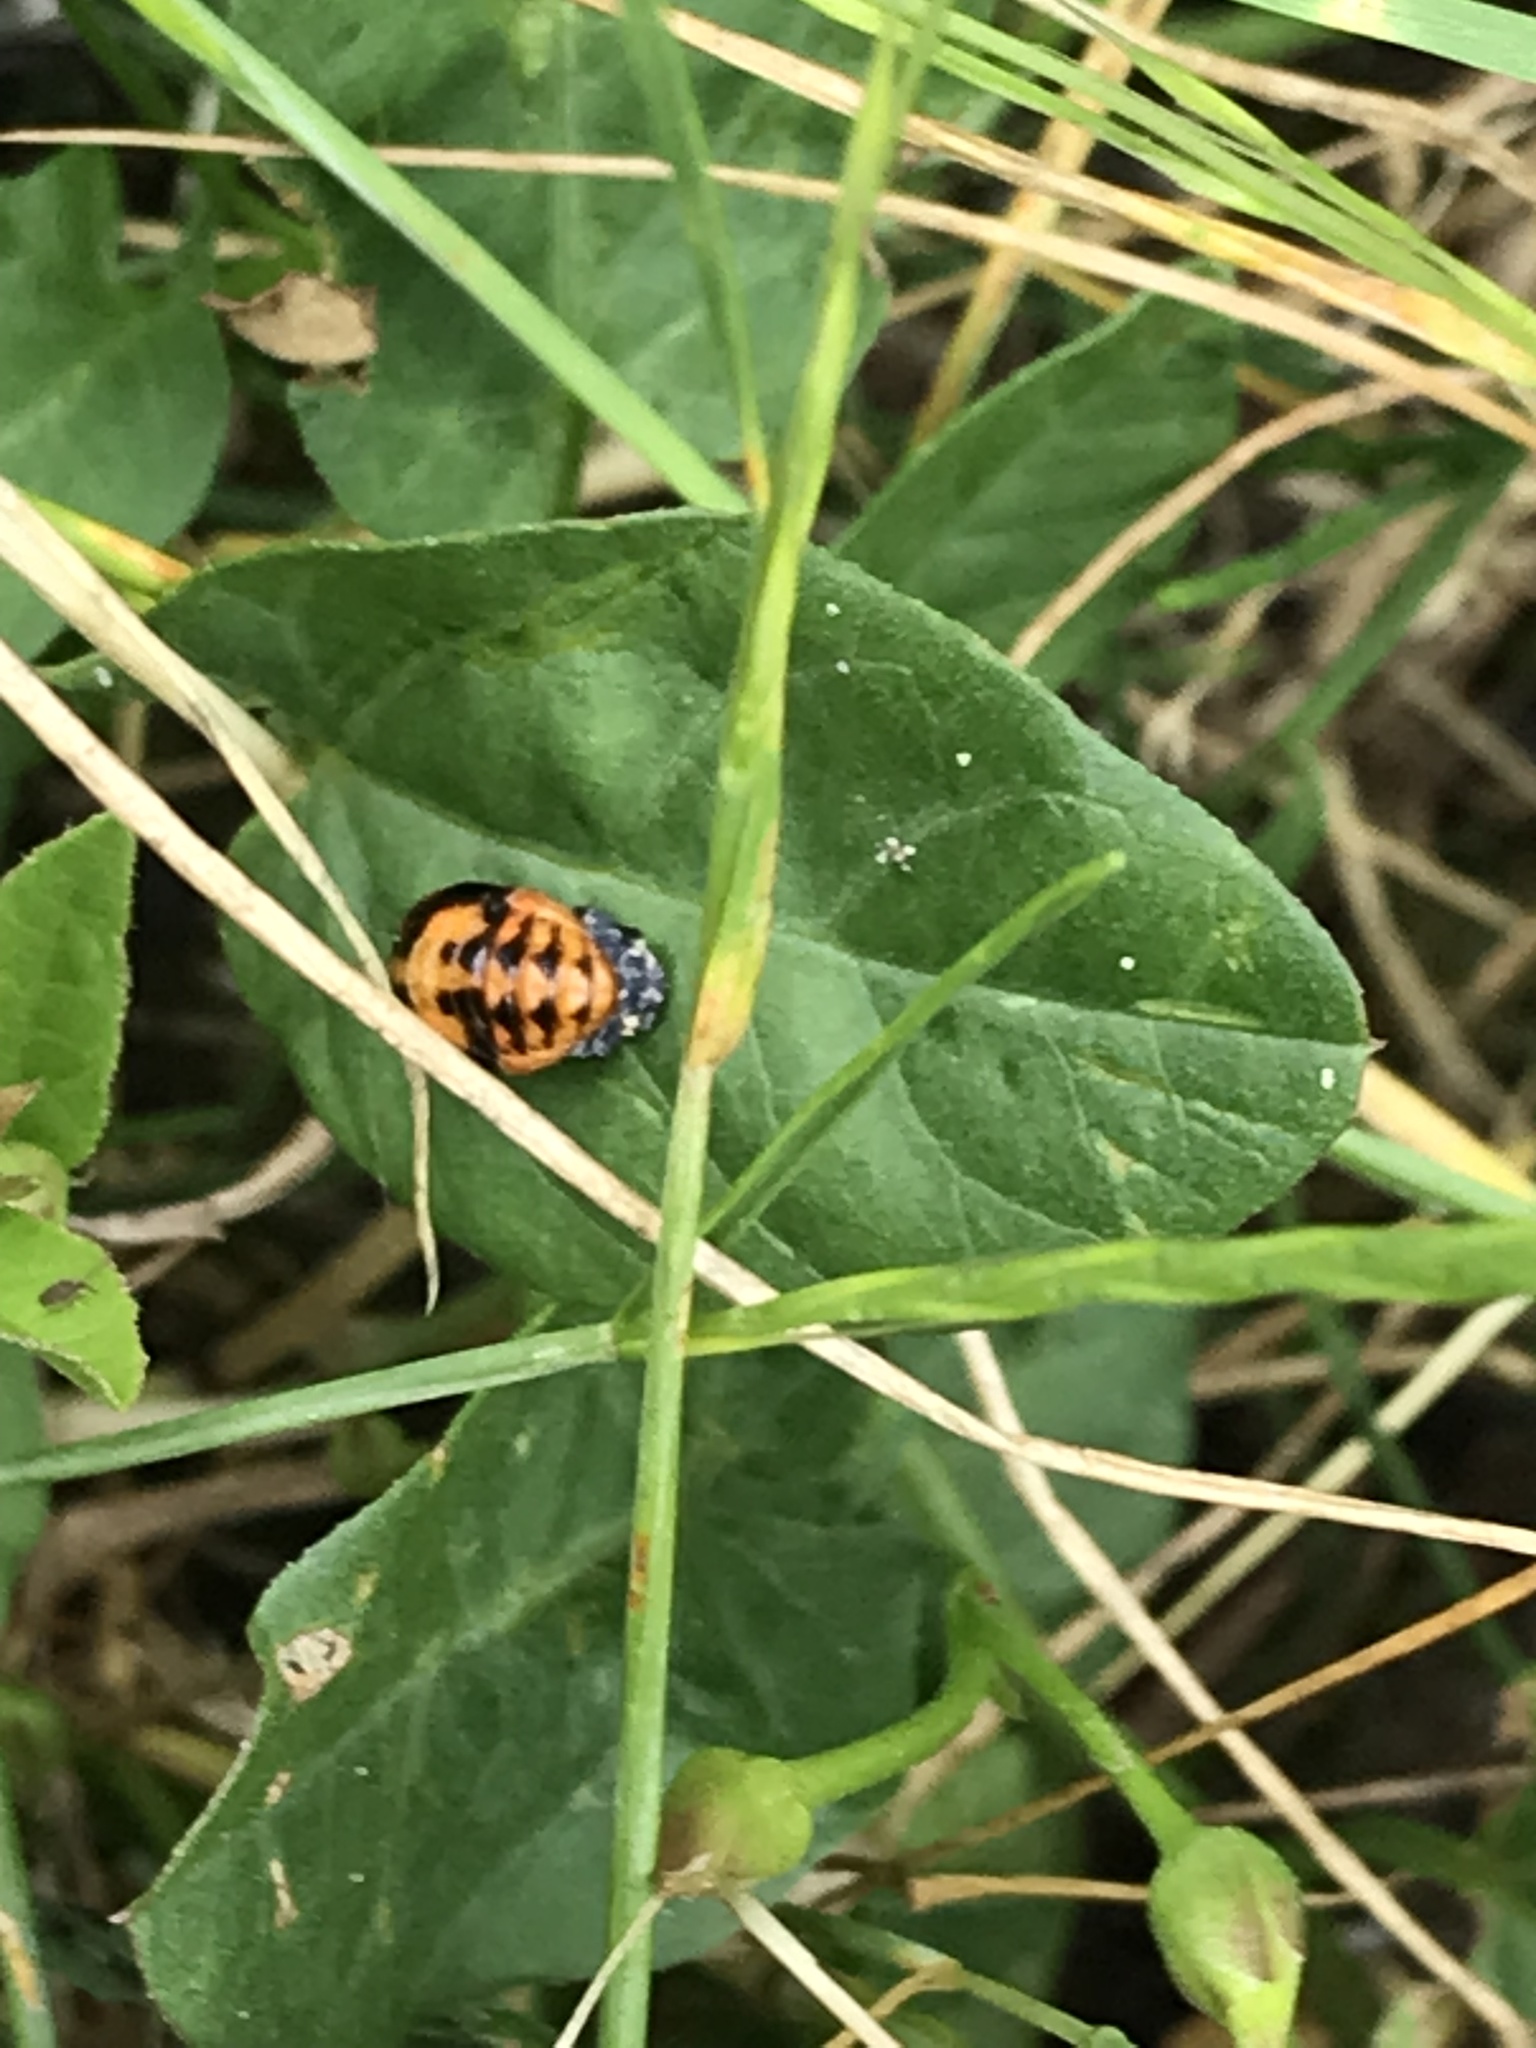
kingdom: Animalia
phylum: Arthropoda
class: Insecta
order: Coleoptera
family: Coccinellidae
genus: Coccinella
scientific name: Coccinella septempunctata
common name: Sevenspotted lady beetle
